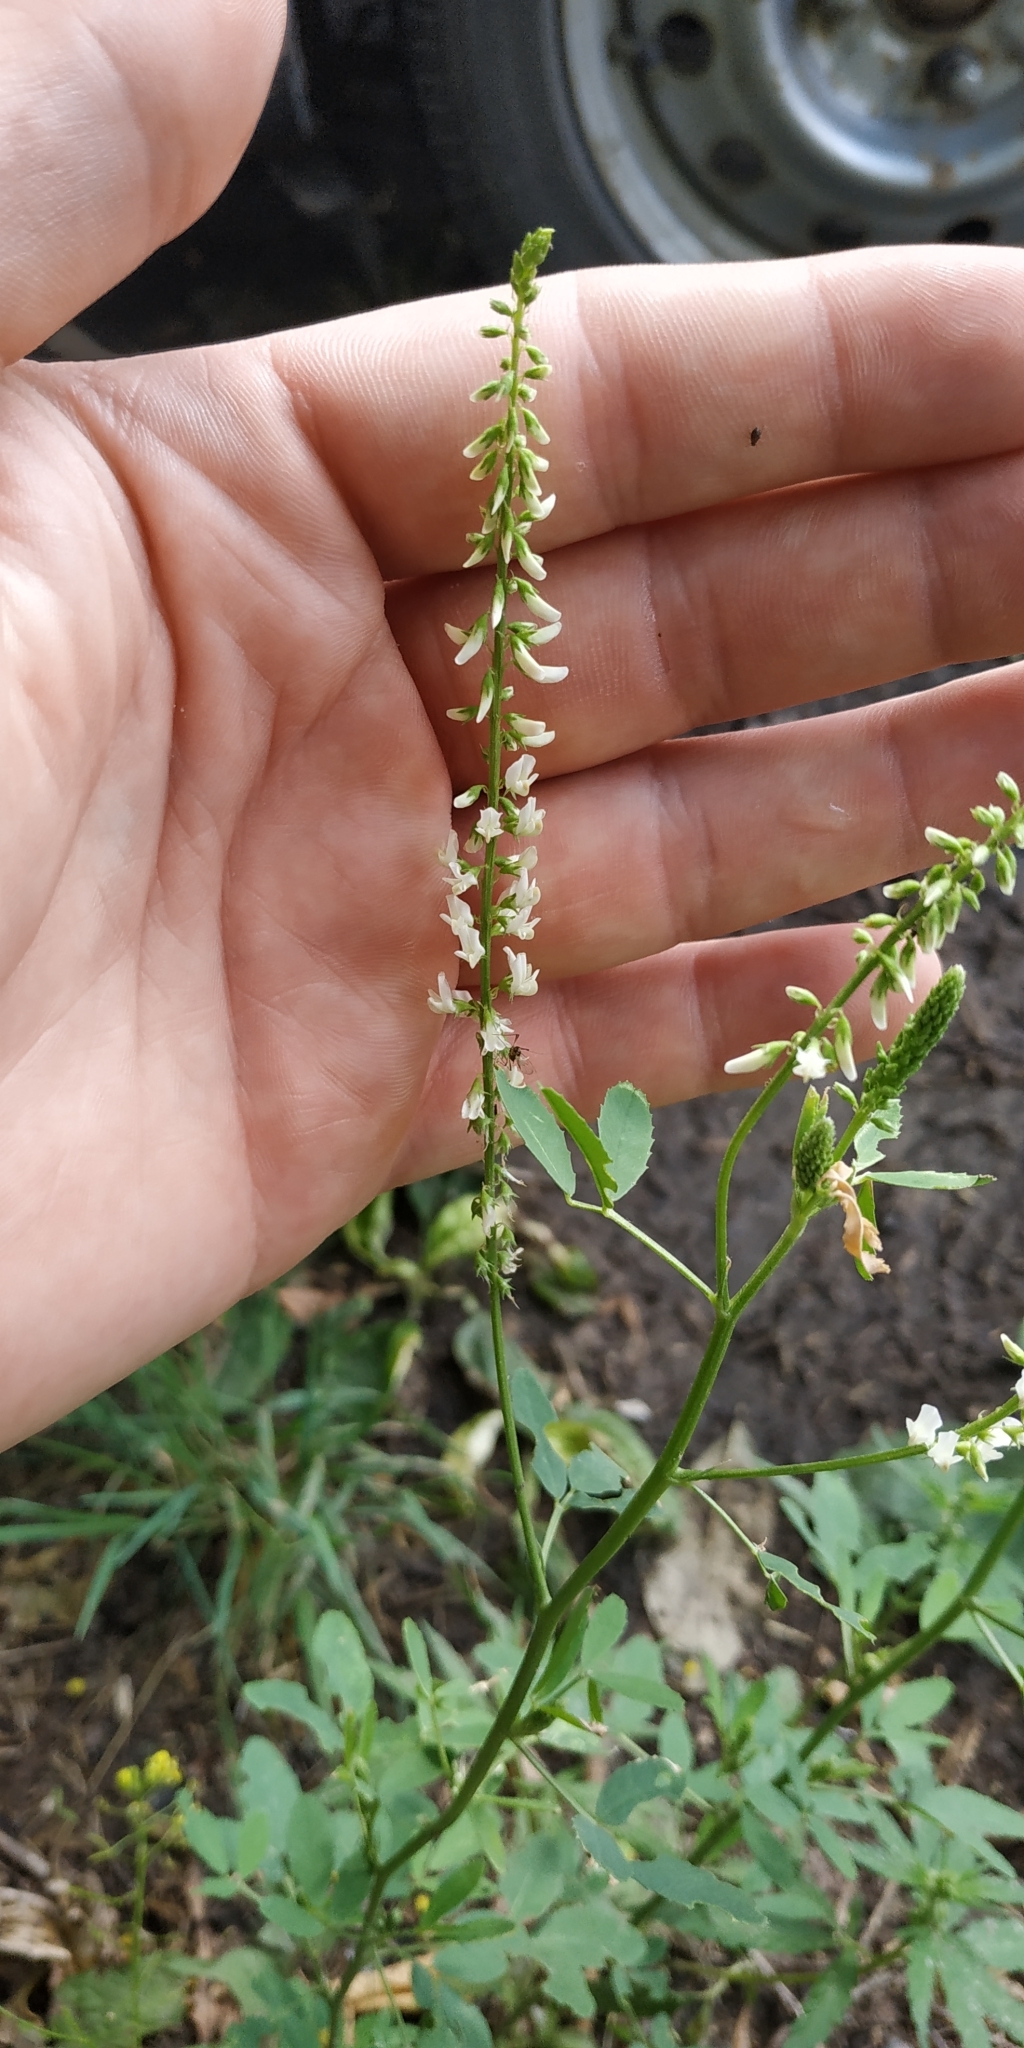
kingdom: Plantae
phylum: Tracheophyta
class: Magnoliopsida
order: Fabales
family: Fabaceae
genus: Melilotus
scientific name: Melilotus albus
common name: White melilot
